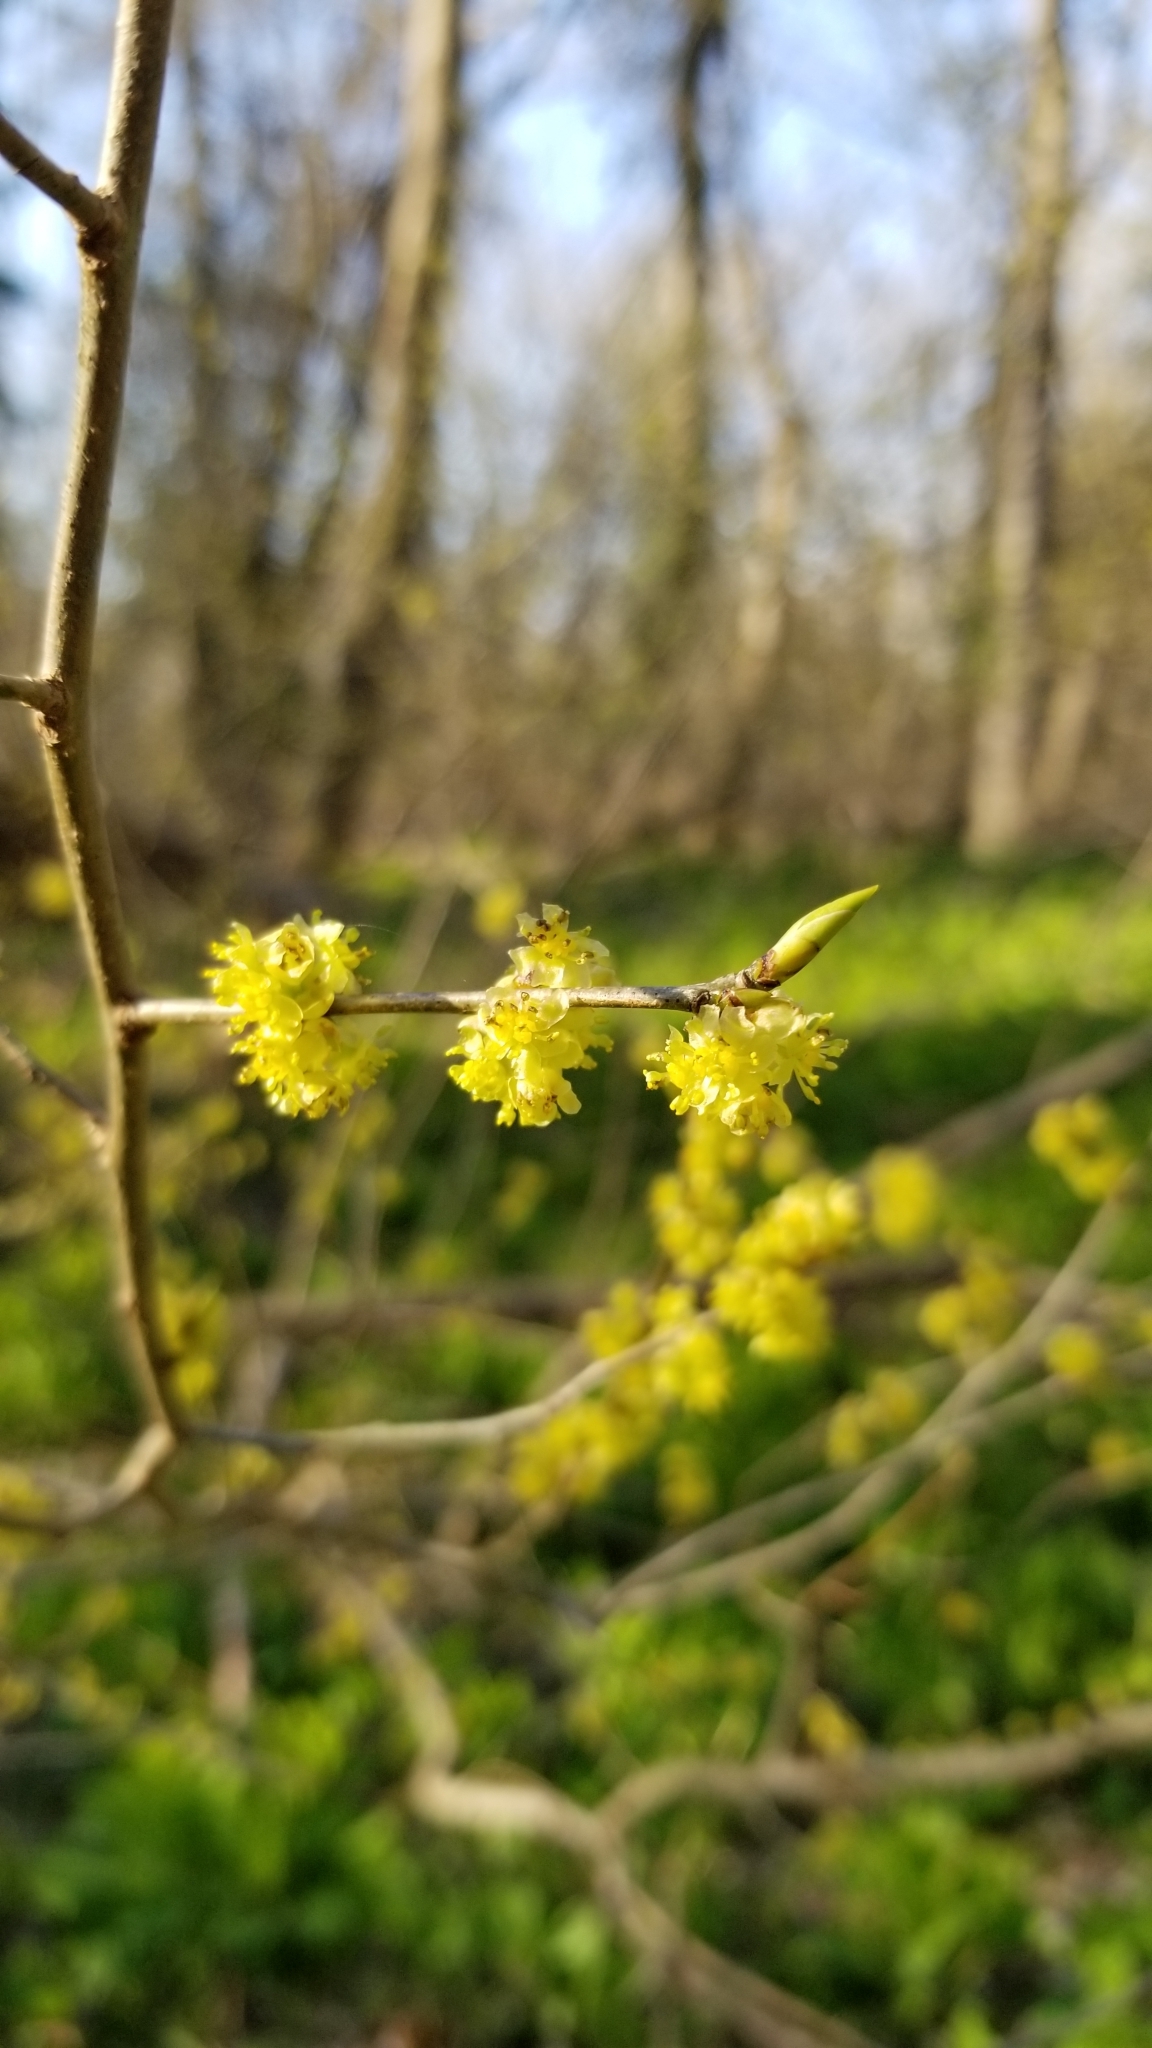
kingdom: Plantae
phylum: Tracheophyta
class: Magnoliopsida
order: Laurales
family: Lauraceae
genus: Lindera
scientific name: Lindera benzoin
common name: Spicebush
